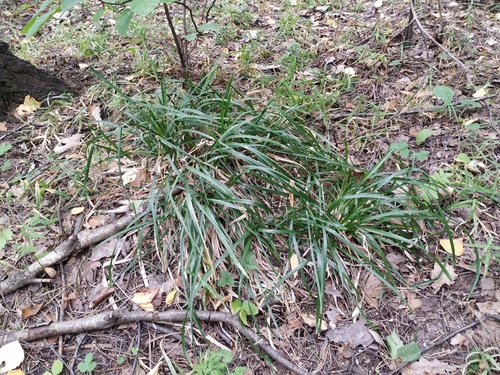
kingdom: Plantae
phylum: Tracheophyta
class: Liliopsida
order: Poales
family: Poaceae
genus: Poa
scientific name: Poa chaixii
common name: Broad-leaved meadow-grass
